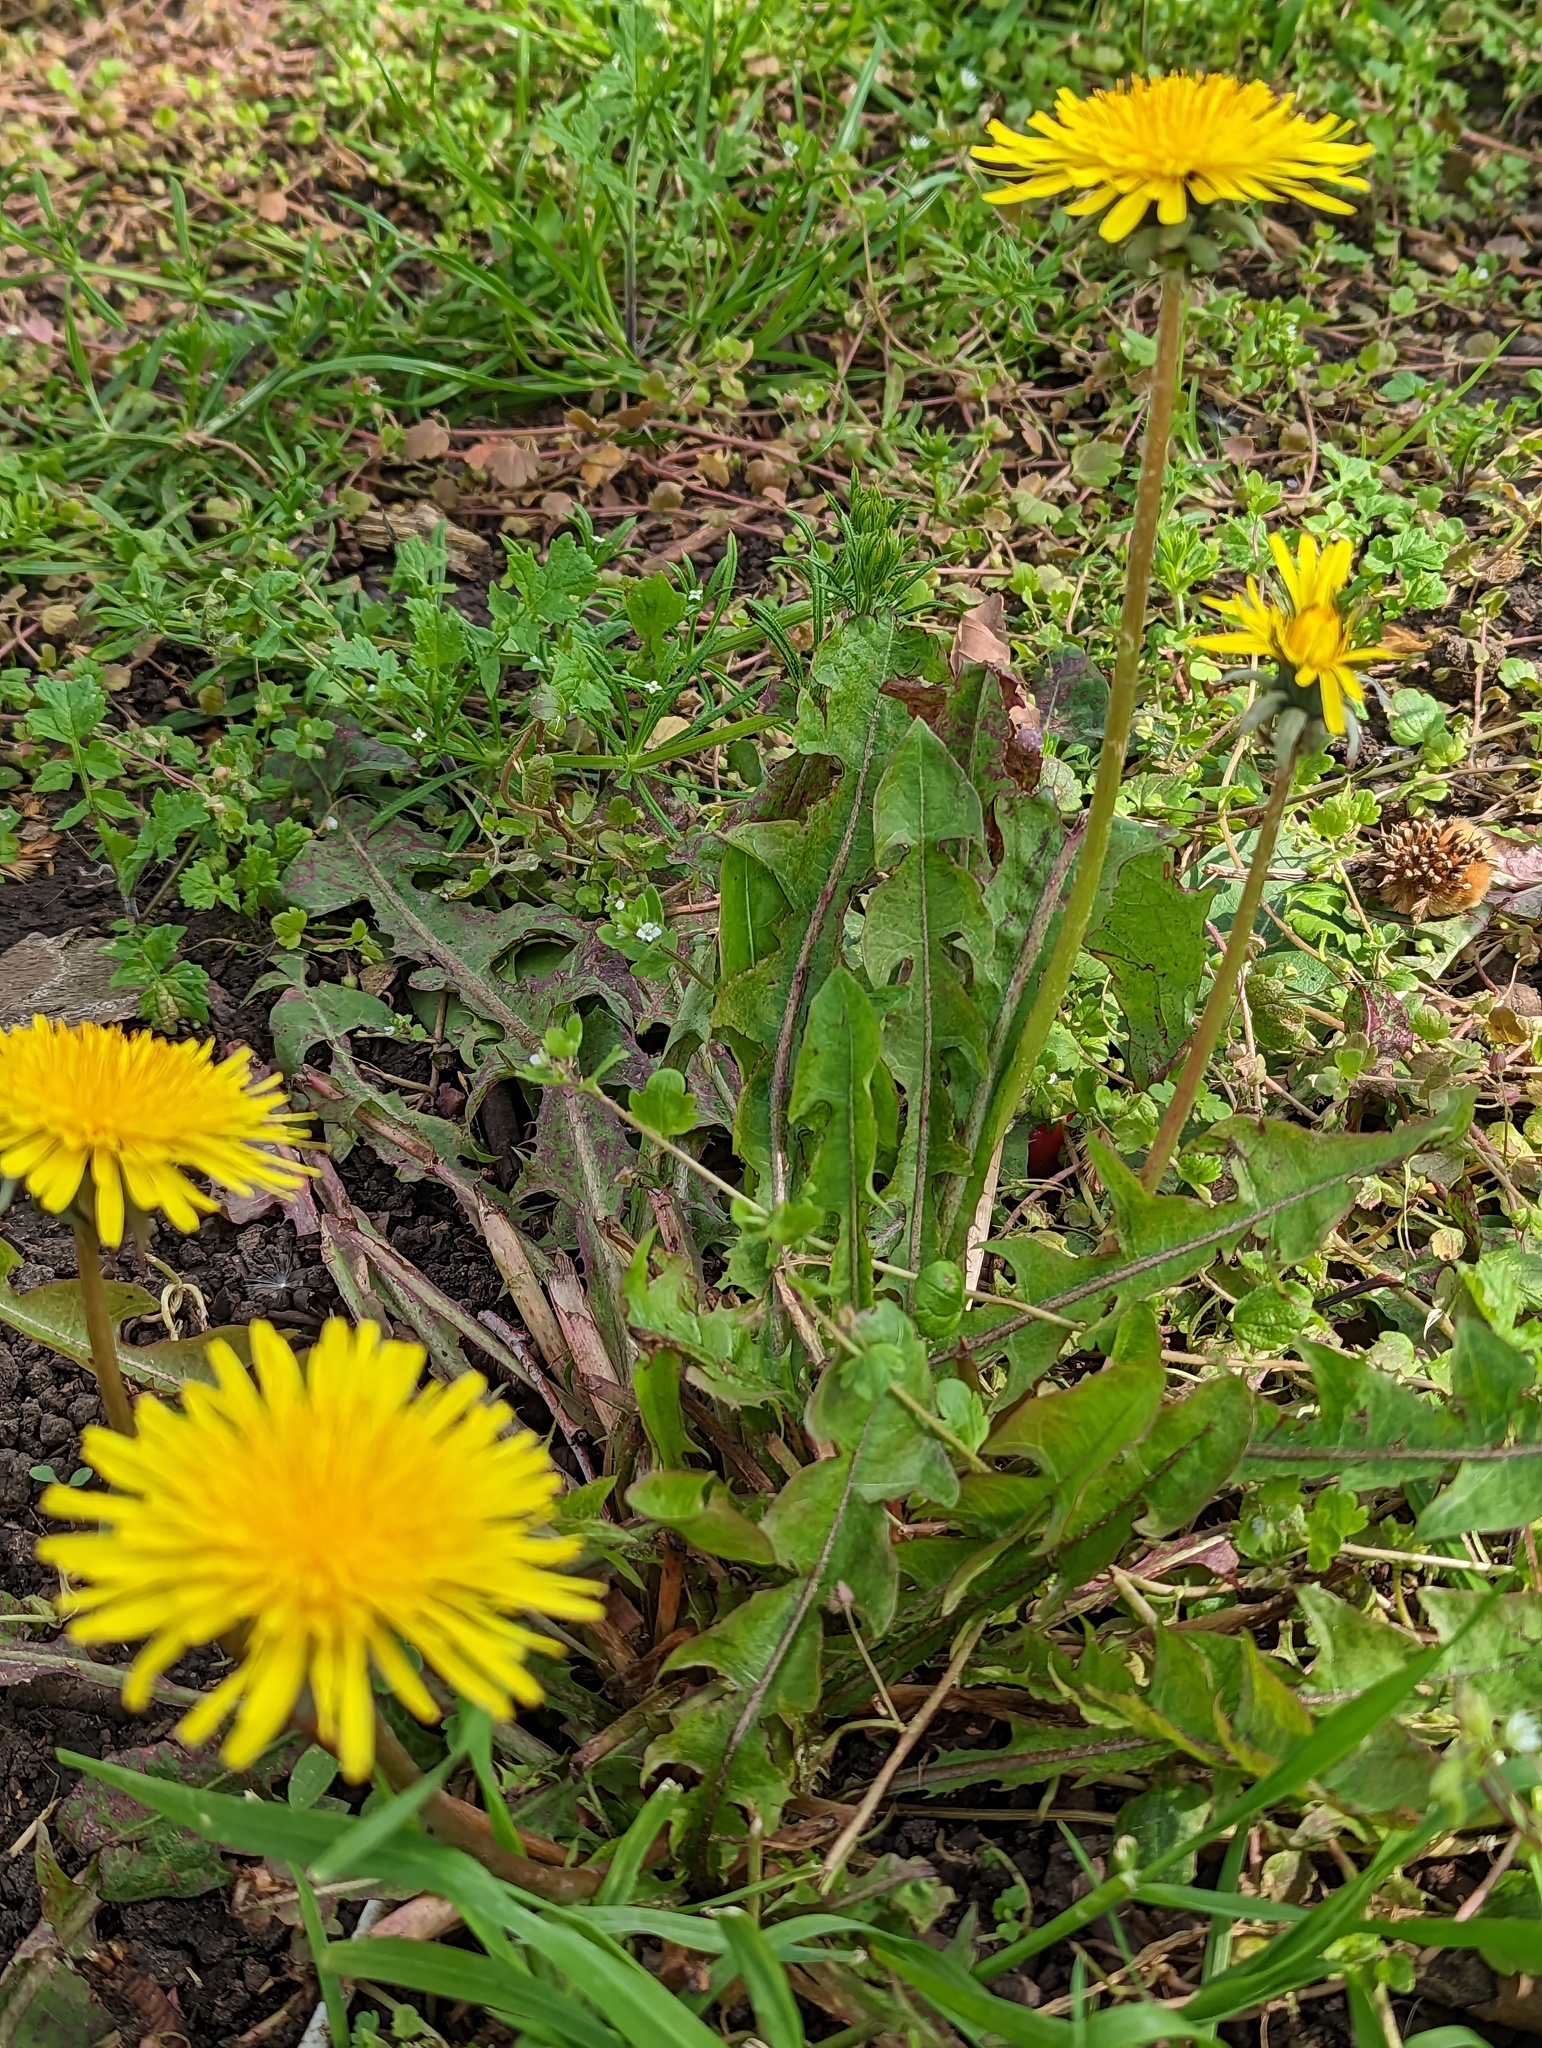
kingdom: Plantae
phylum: Tracheophyta
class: Magnoliopsida
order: Asterales
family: Asteraceae
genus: Taraxacum
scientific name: Taraxacum officinale
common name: Common dandelion
